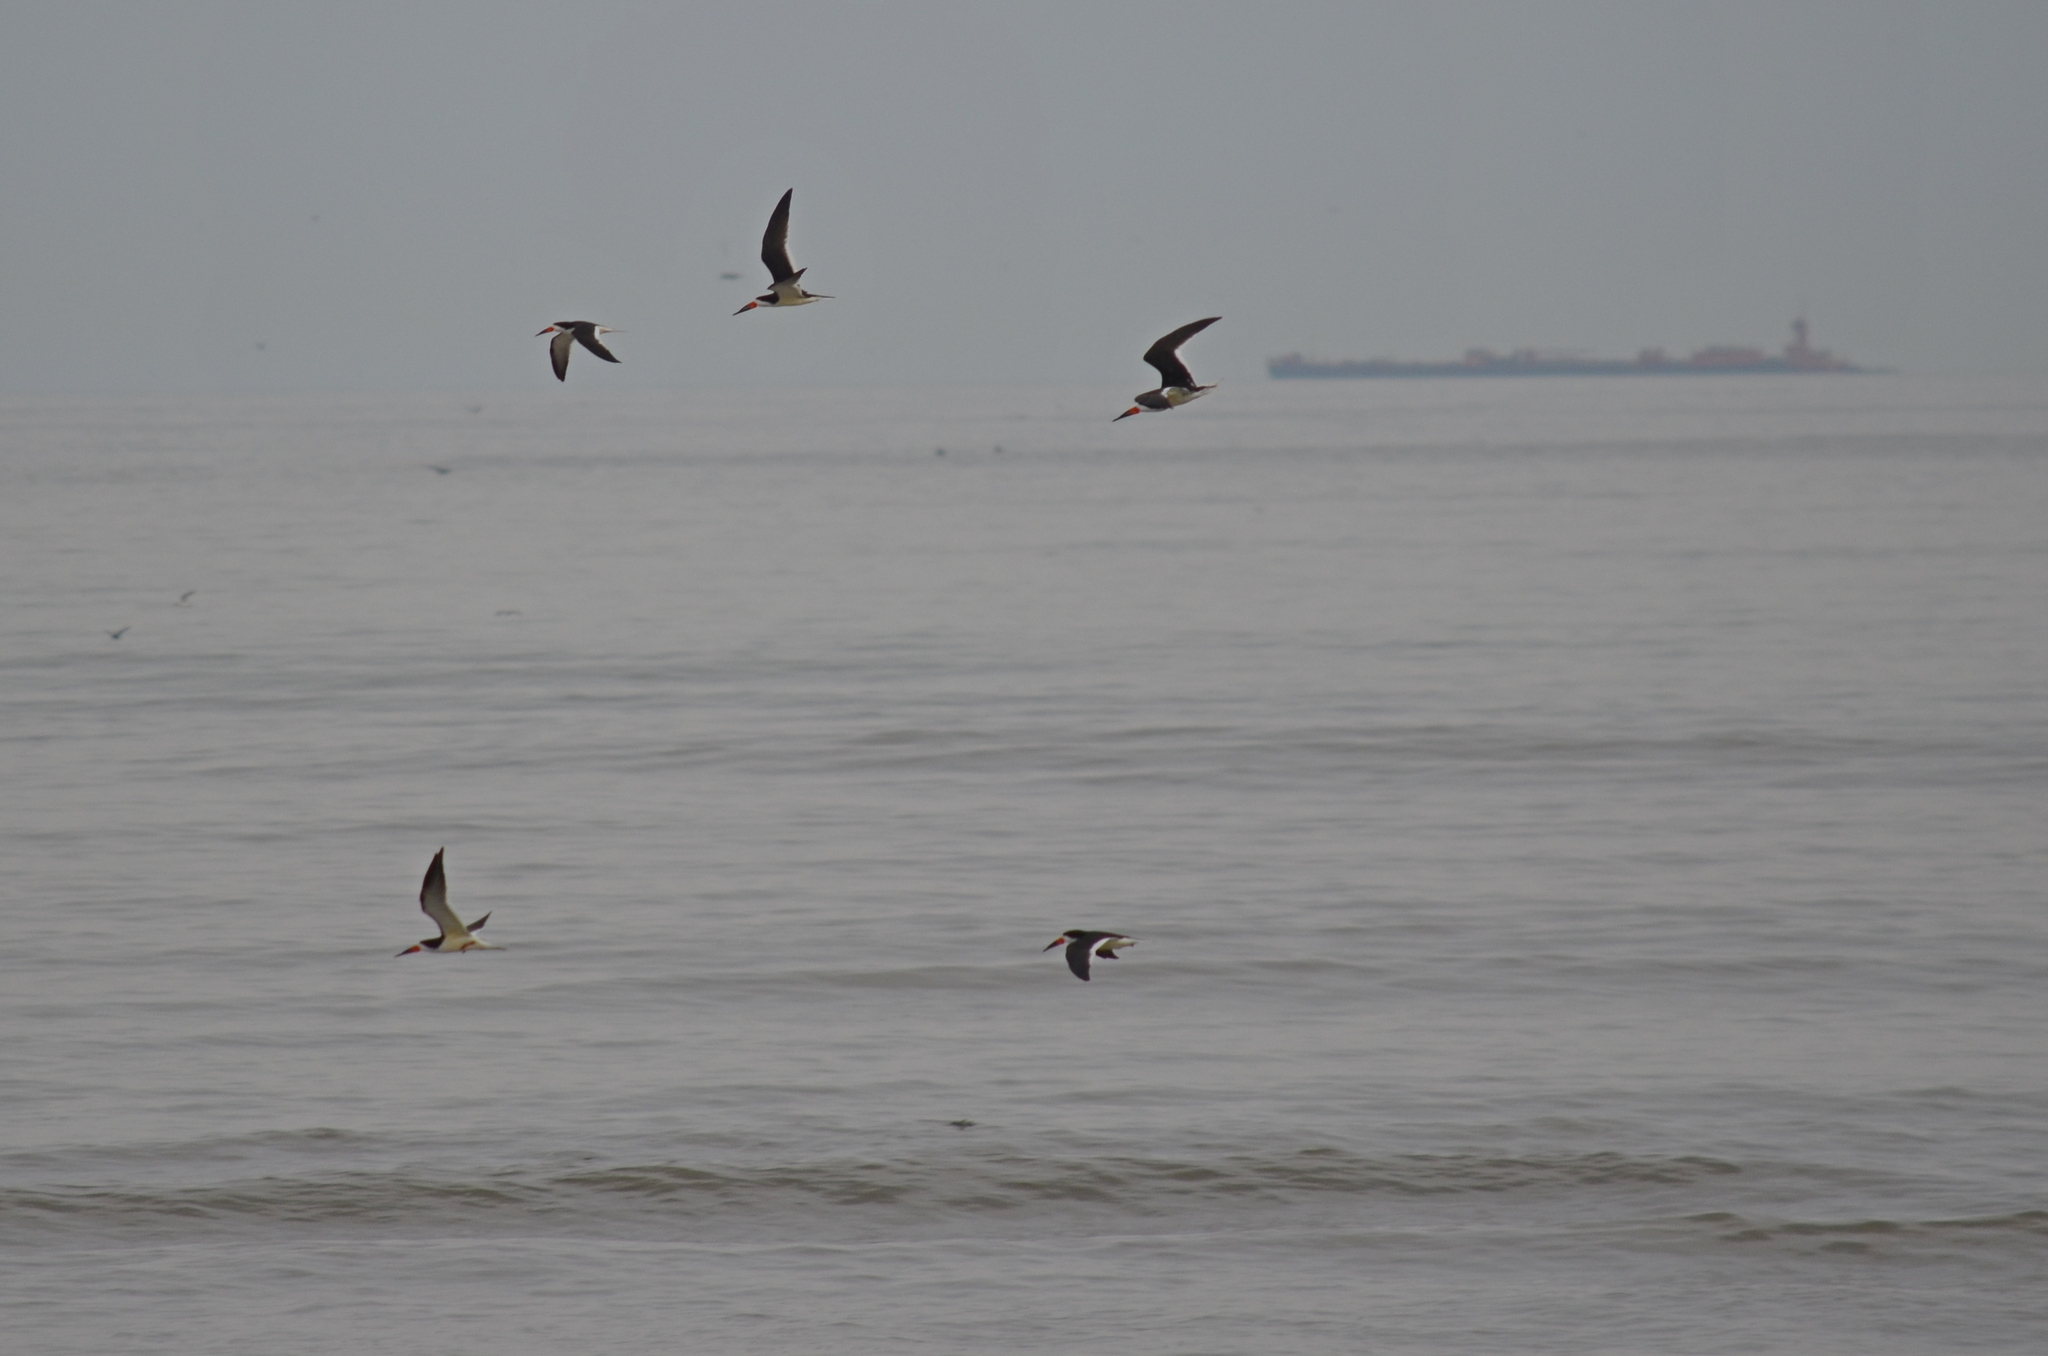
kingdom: Animalia
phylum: Chordata
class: Aves
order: Charadriiformes
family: Laridae
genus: Rynchops
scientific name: Rynchops niger
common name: Black skimmer
